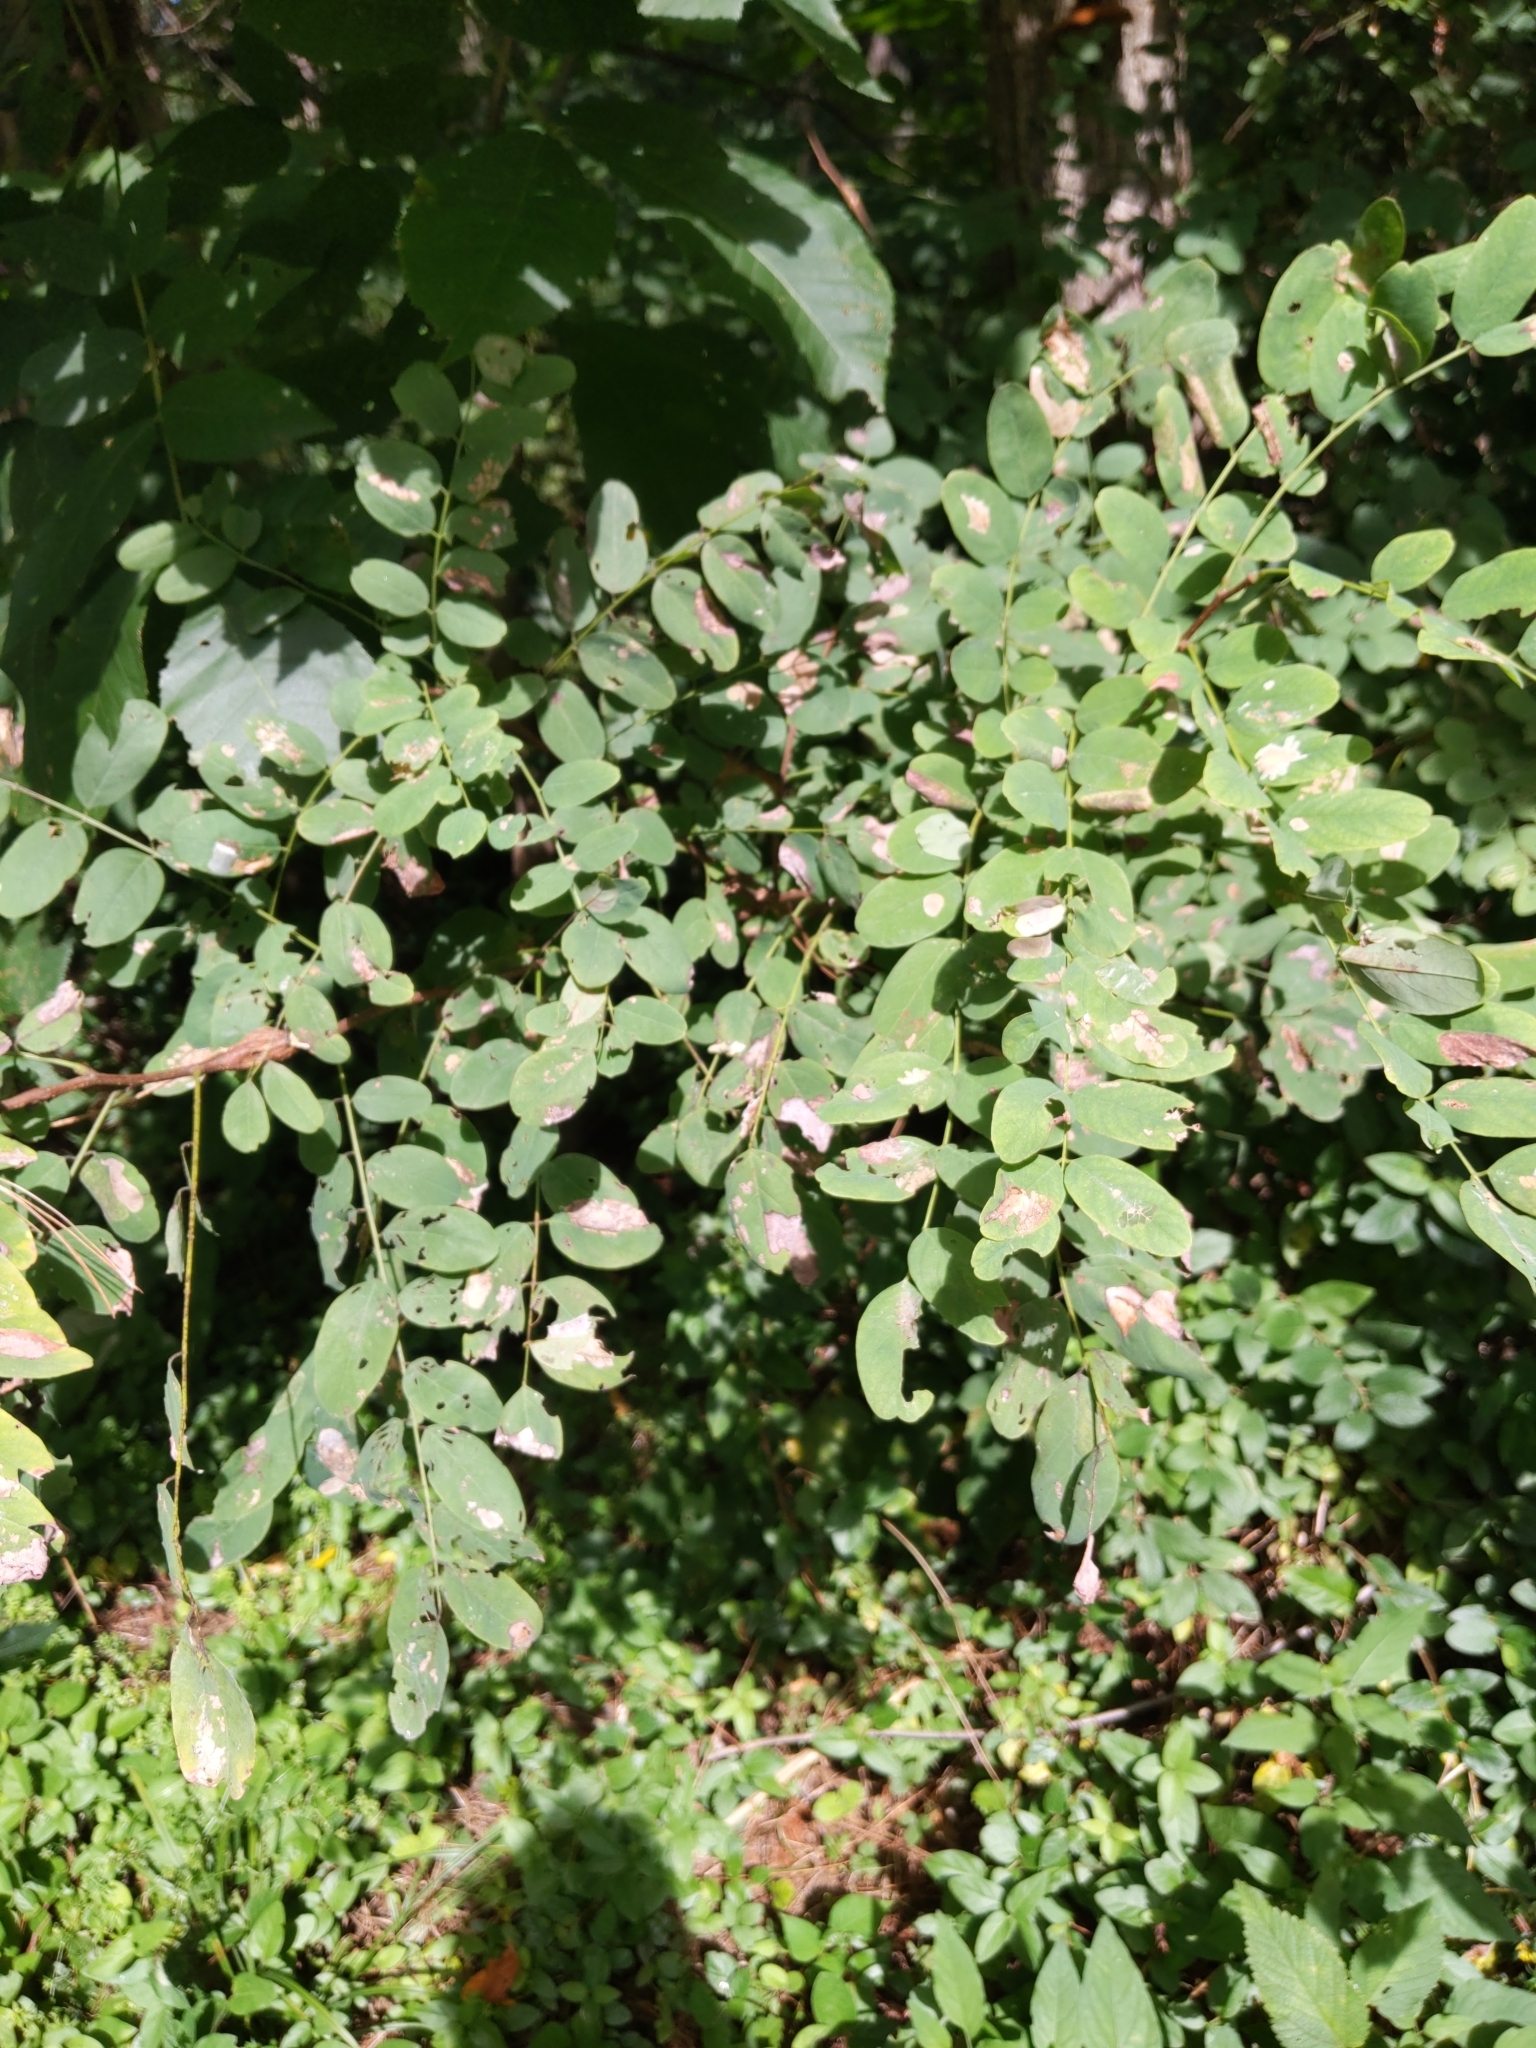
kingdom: Plantae
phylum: Tracheophyta
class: Magnoliopsida
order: Fabales
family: Fabaceae
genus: Robinia
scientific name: Robinia pseudoacacia
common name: Black locust
